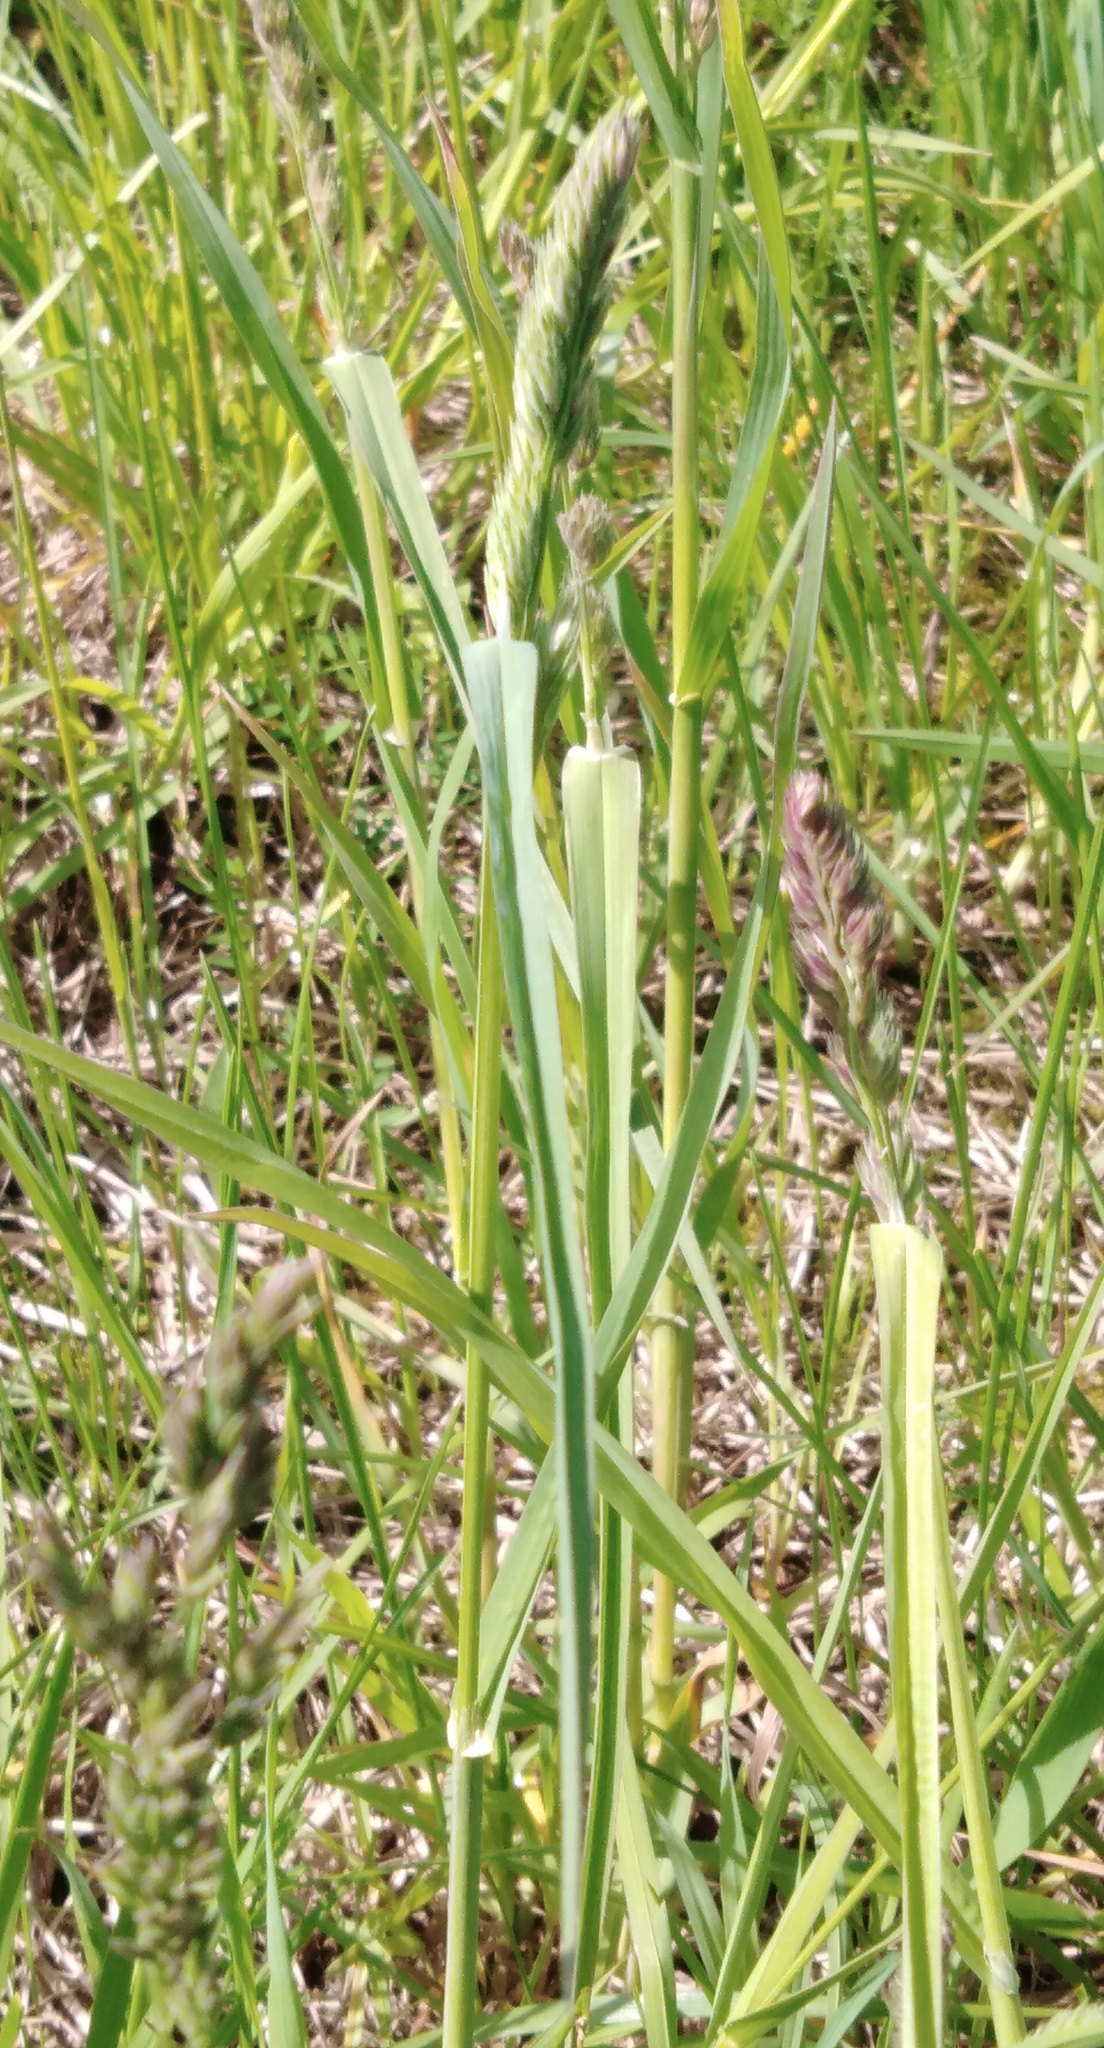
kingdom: Plantae
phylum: Tracheophyta
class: Liliopsida
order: Poales
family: Poaceae
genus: Dactylis
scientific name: Dactylis glomerata
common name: Orchardgrass
